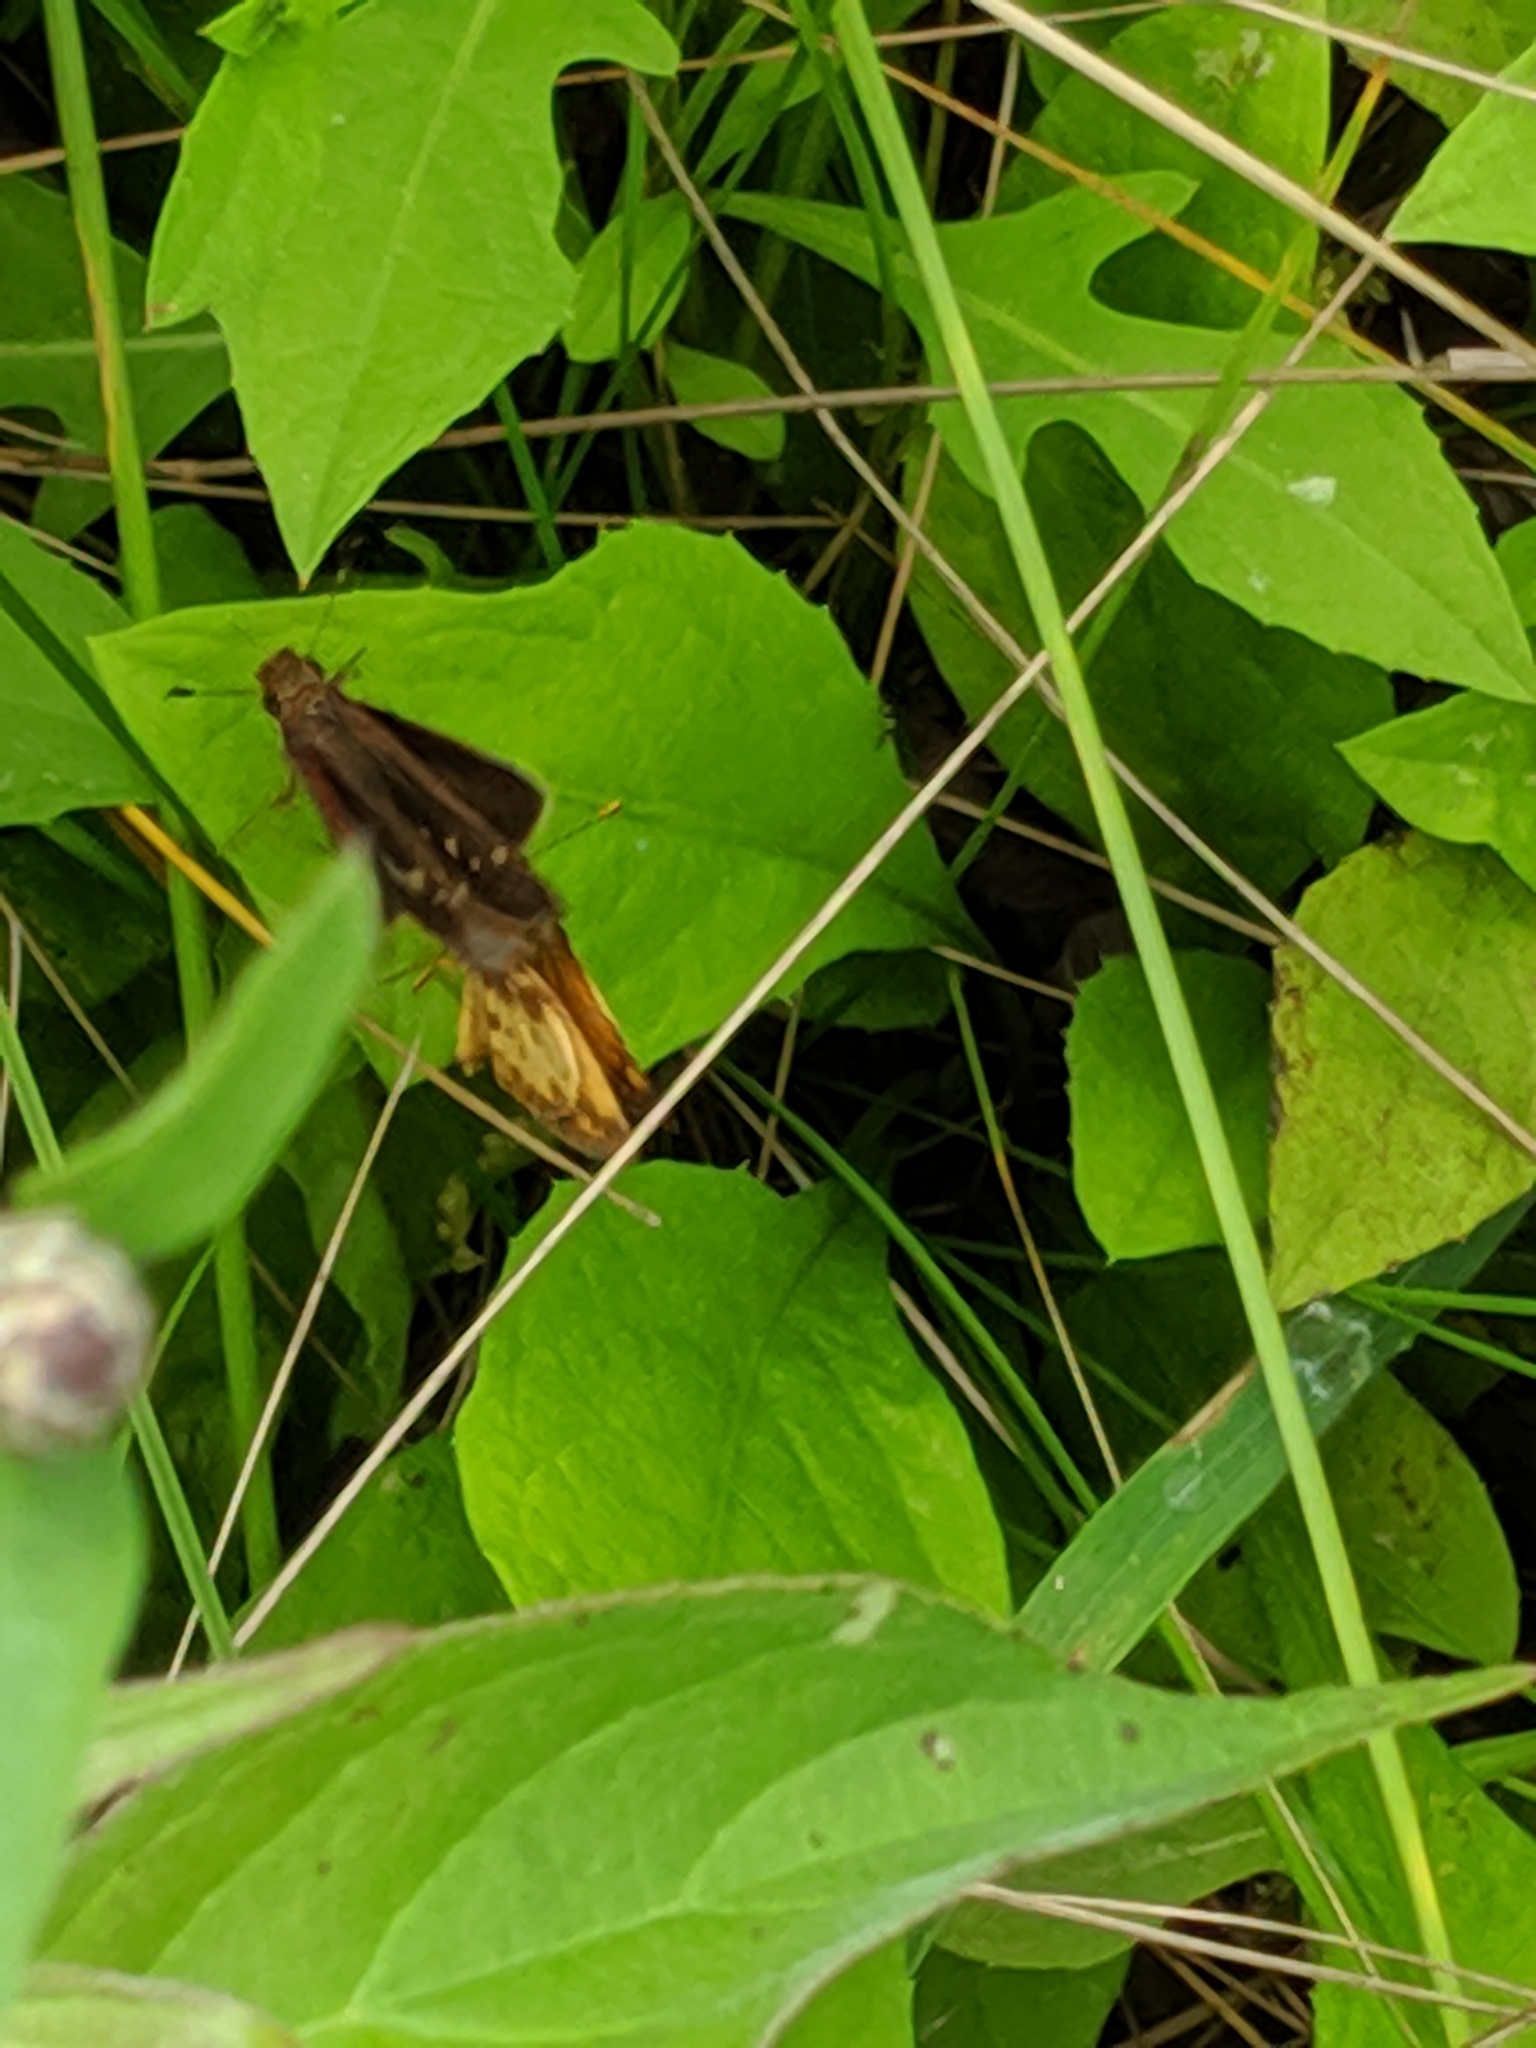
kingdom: Animalia
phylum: Arthropoda
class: Insecta
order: Lepidoptera
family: Hesperiidae
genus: Lon
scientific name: Lon zabulon
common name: Zabulon skipper
